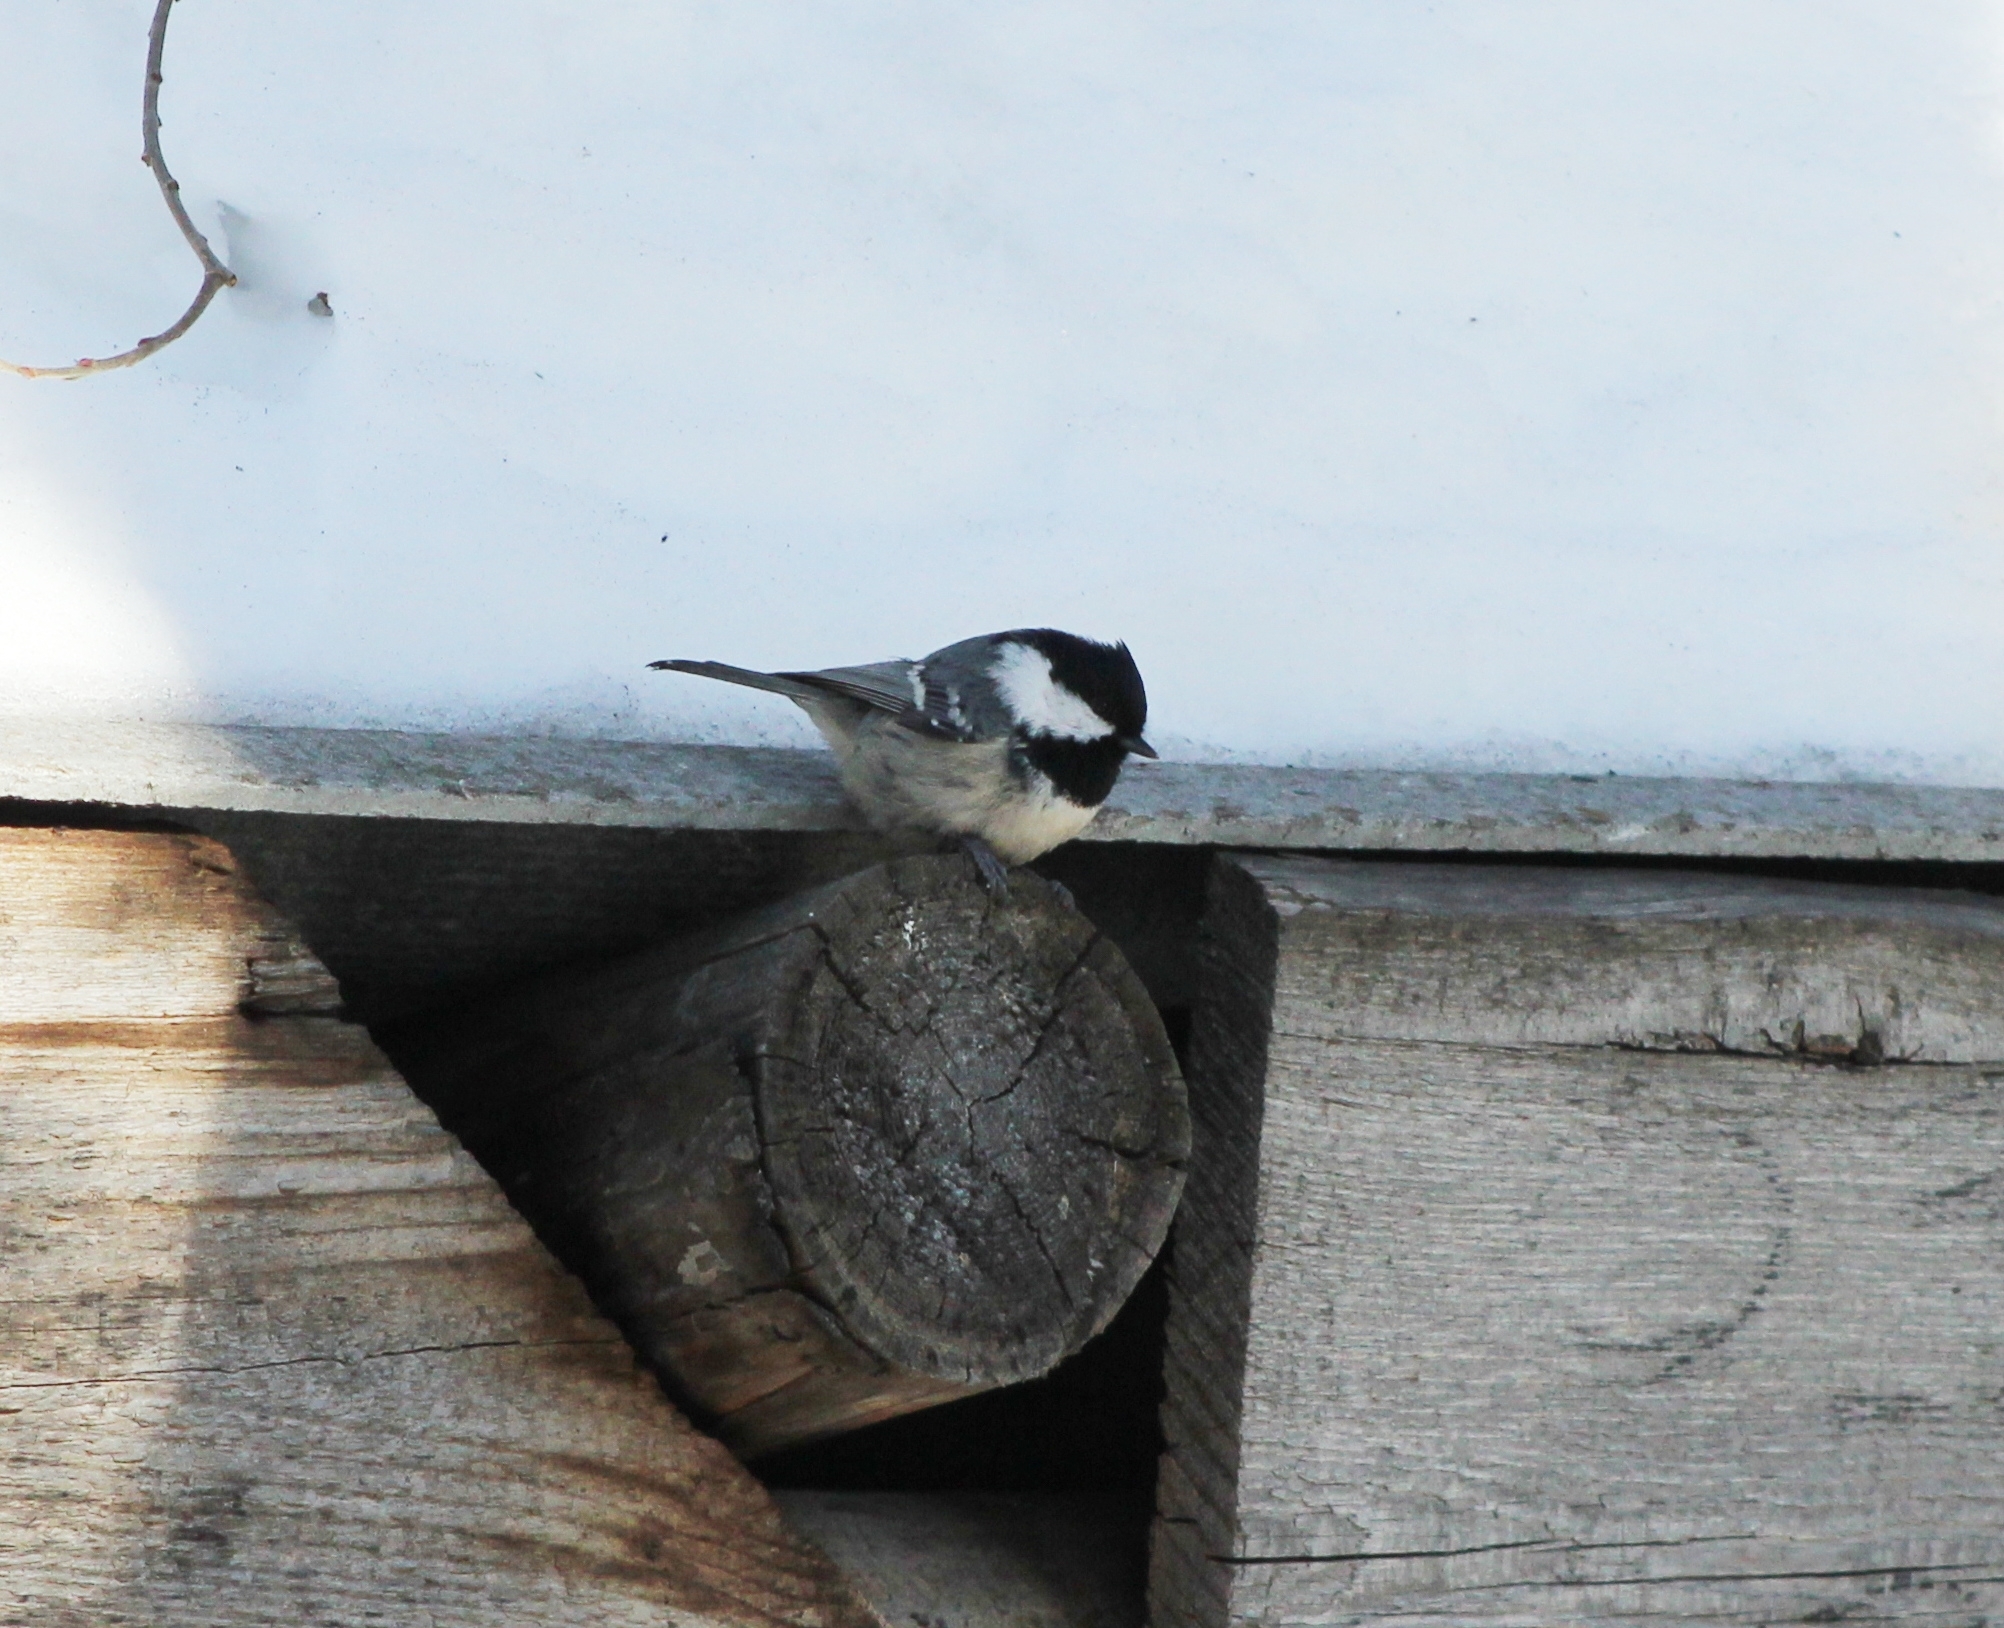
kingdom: Animalia
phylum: Chordata
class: Aves
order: Passeriformes
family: Paridae
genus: Periparus
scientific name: Periparus ater
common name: Coal tit
